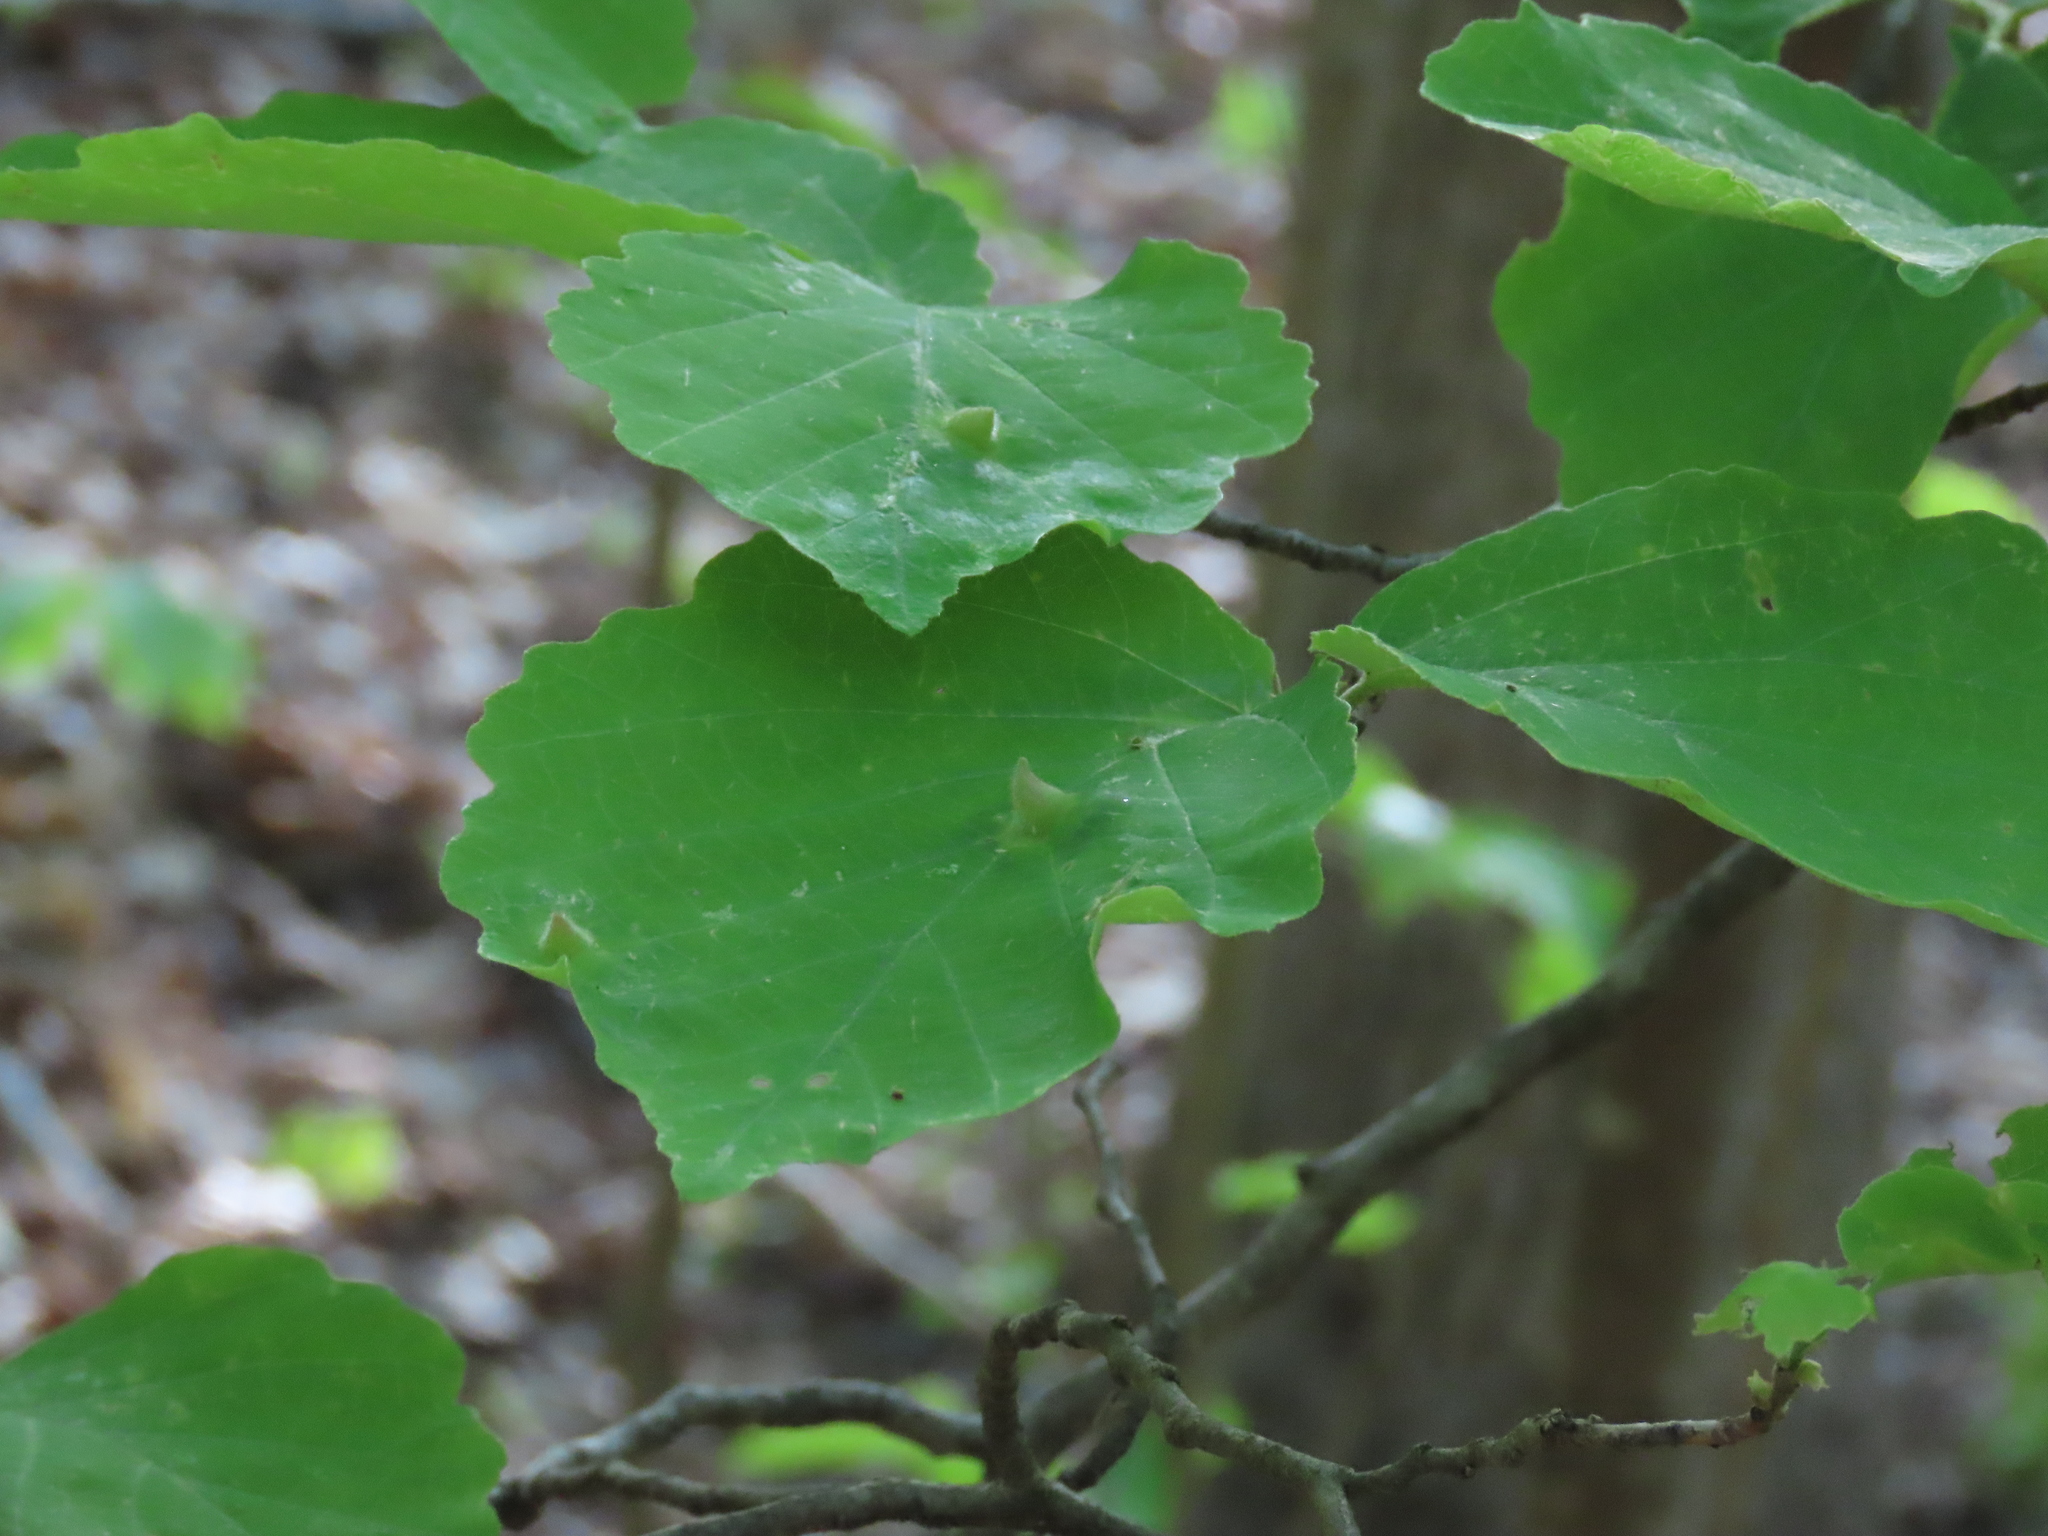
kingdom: Plantae
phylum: Tracheophyta
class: Magnoliopsida
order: Saxifragales
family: Hamamelidaceae
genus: Hamamelis
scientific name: Hamamelis virginiana
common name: Witch-hazel
